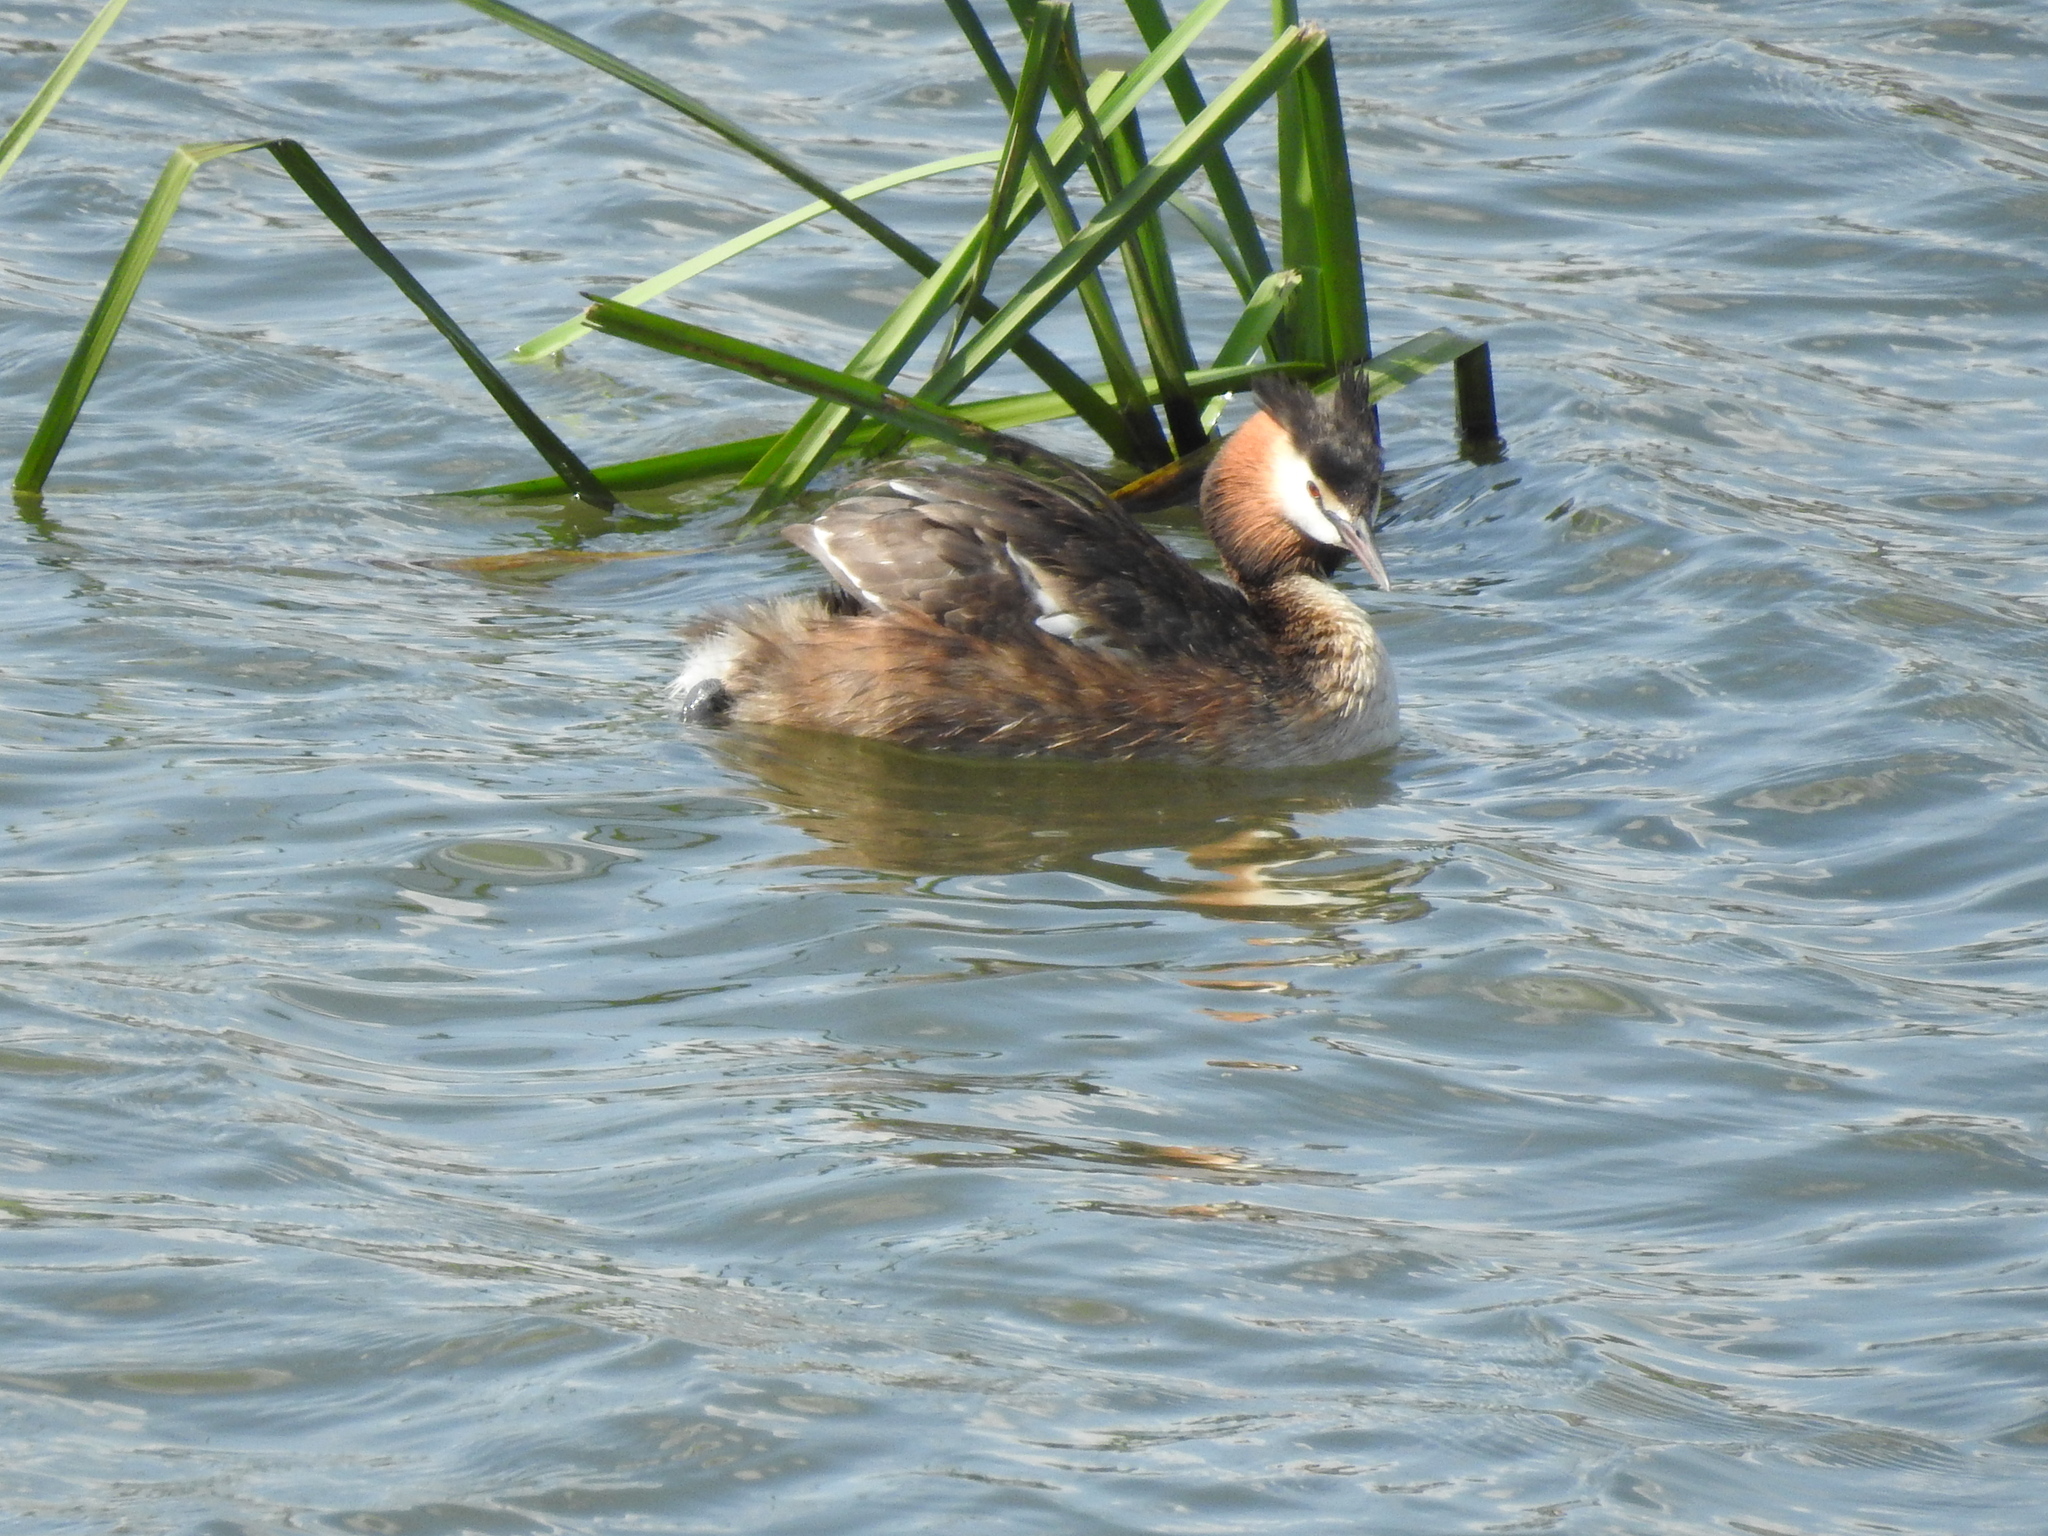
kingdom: Animalia
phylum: Chordata
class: Aves
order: Podicipediformes
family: Podicipedidae
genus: Podiceps
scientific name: Podiceps cristatus
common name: Great crested grebe
